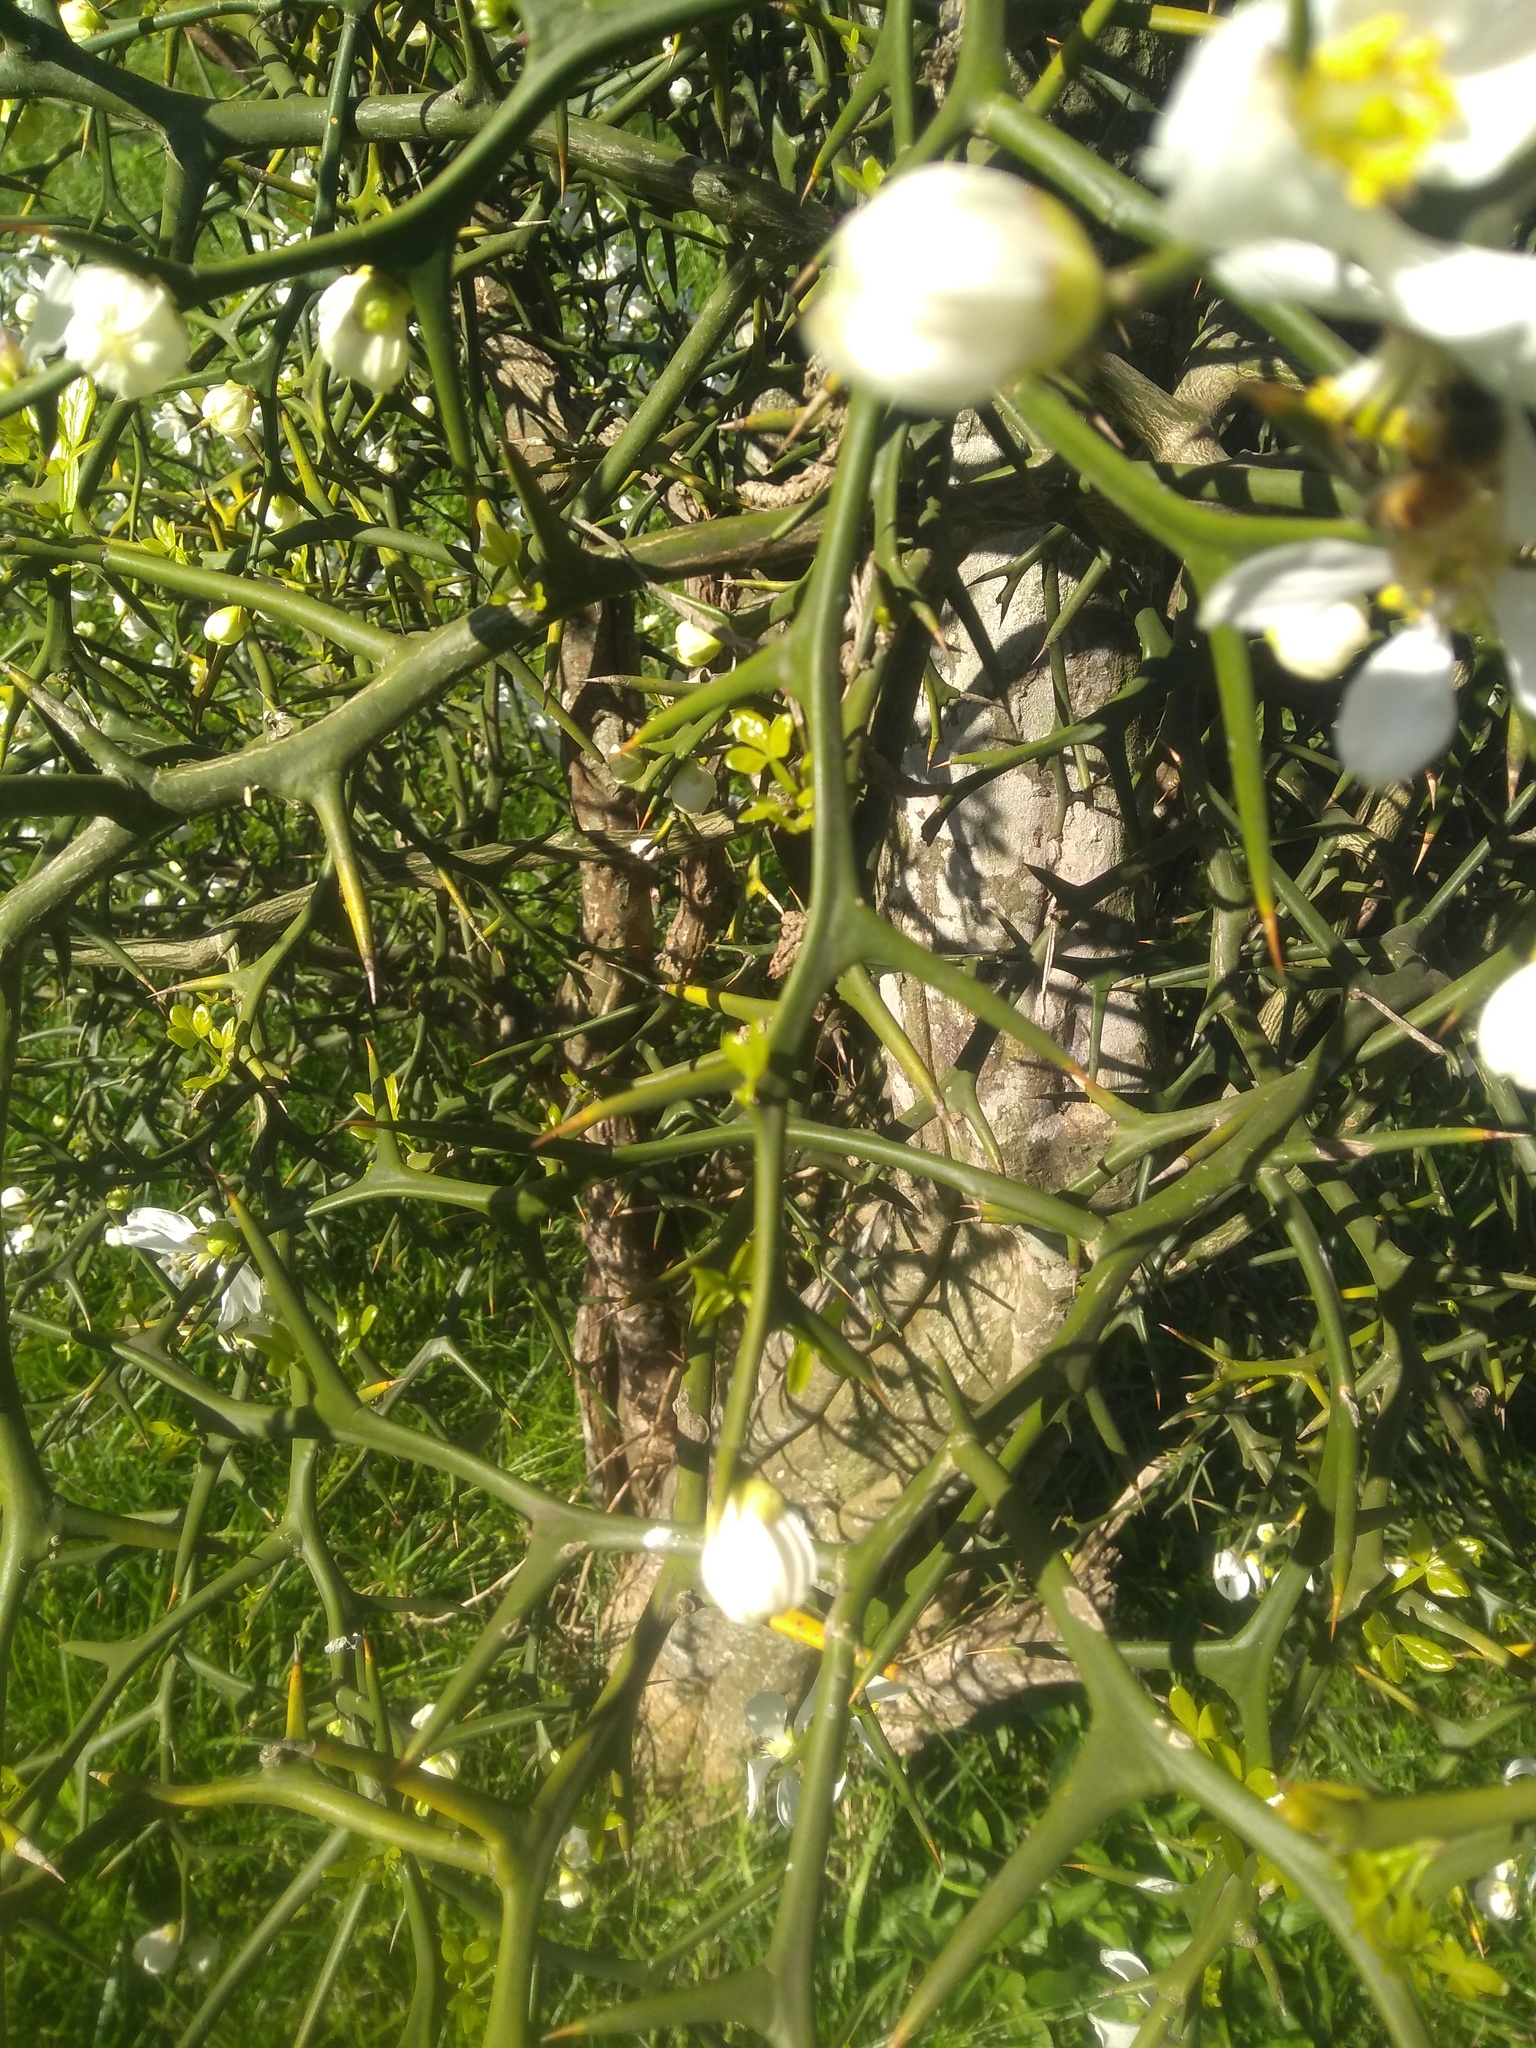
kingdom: Plantae
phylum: Tracheophyta
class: Magnoliopsida
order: Sapindales
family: Rutaceae
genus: Citrus
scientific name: Citrus trifoliata
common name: Japanese bitter-orange
